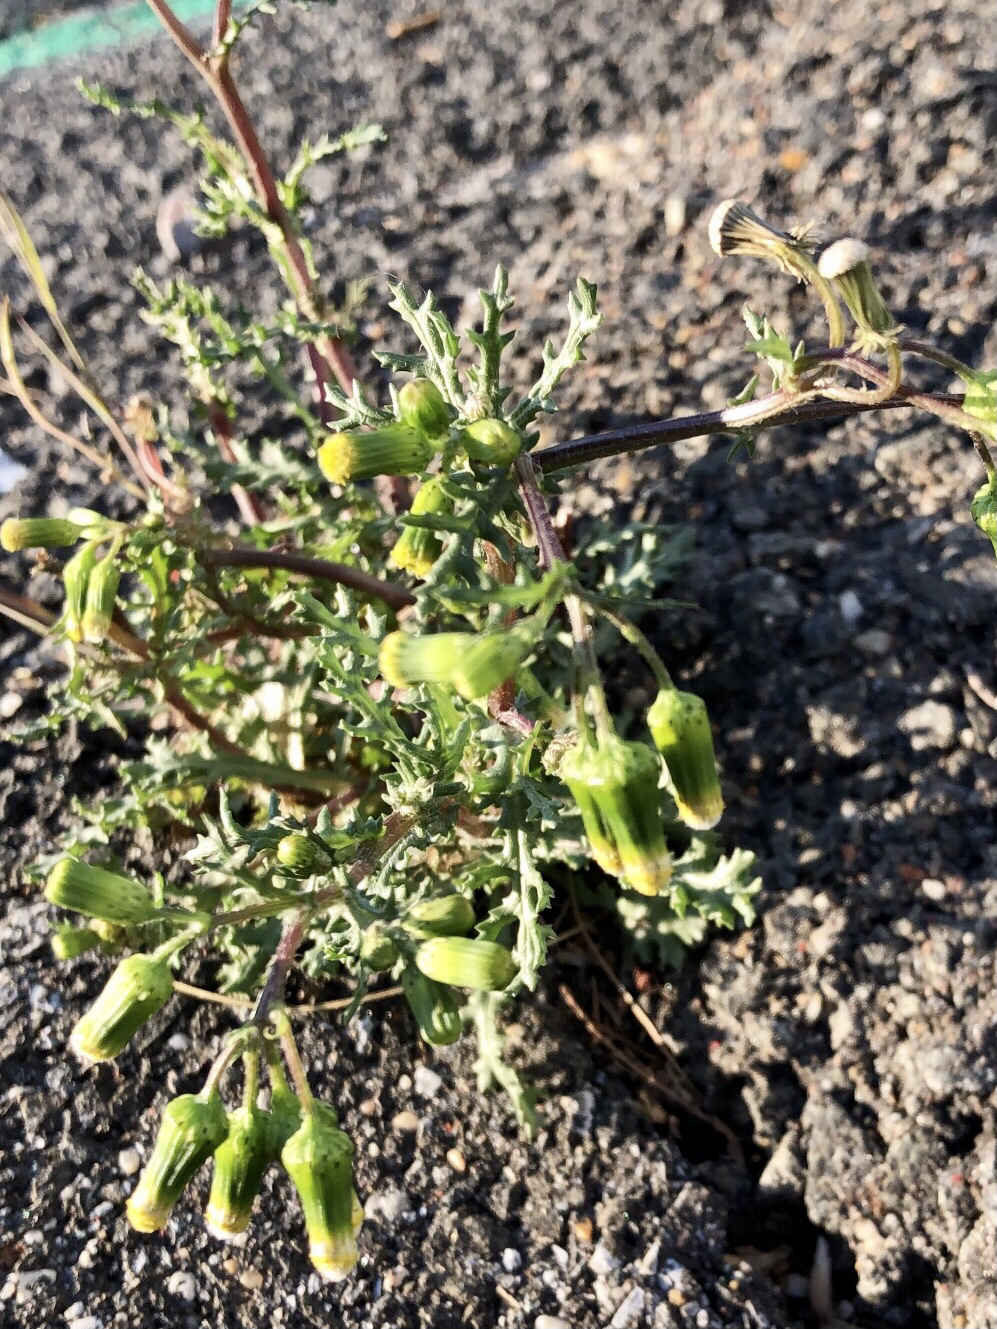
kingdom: Plantae
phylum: Tracheophyta
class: Magnoliopsida
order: Asterales
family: Asteraceae
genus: Senecio
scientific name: Senecio vulgaris
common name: Old-man-in-the-spring
